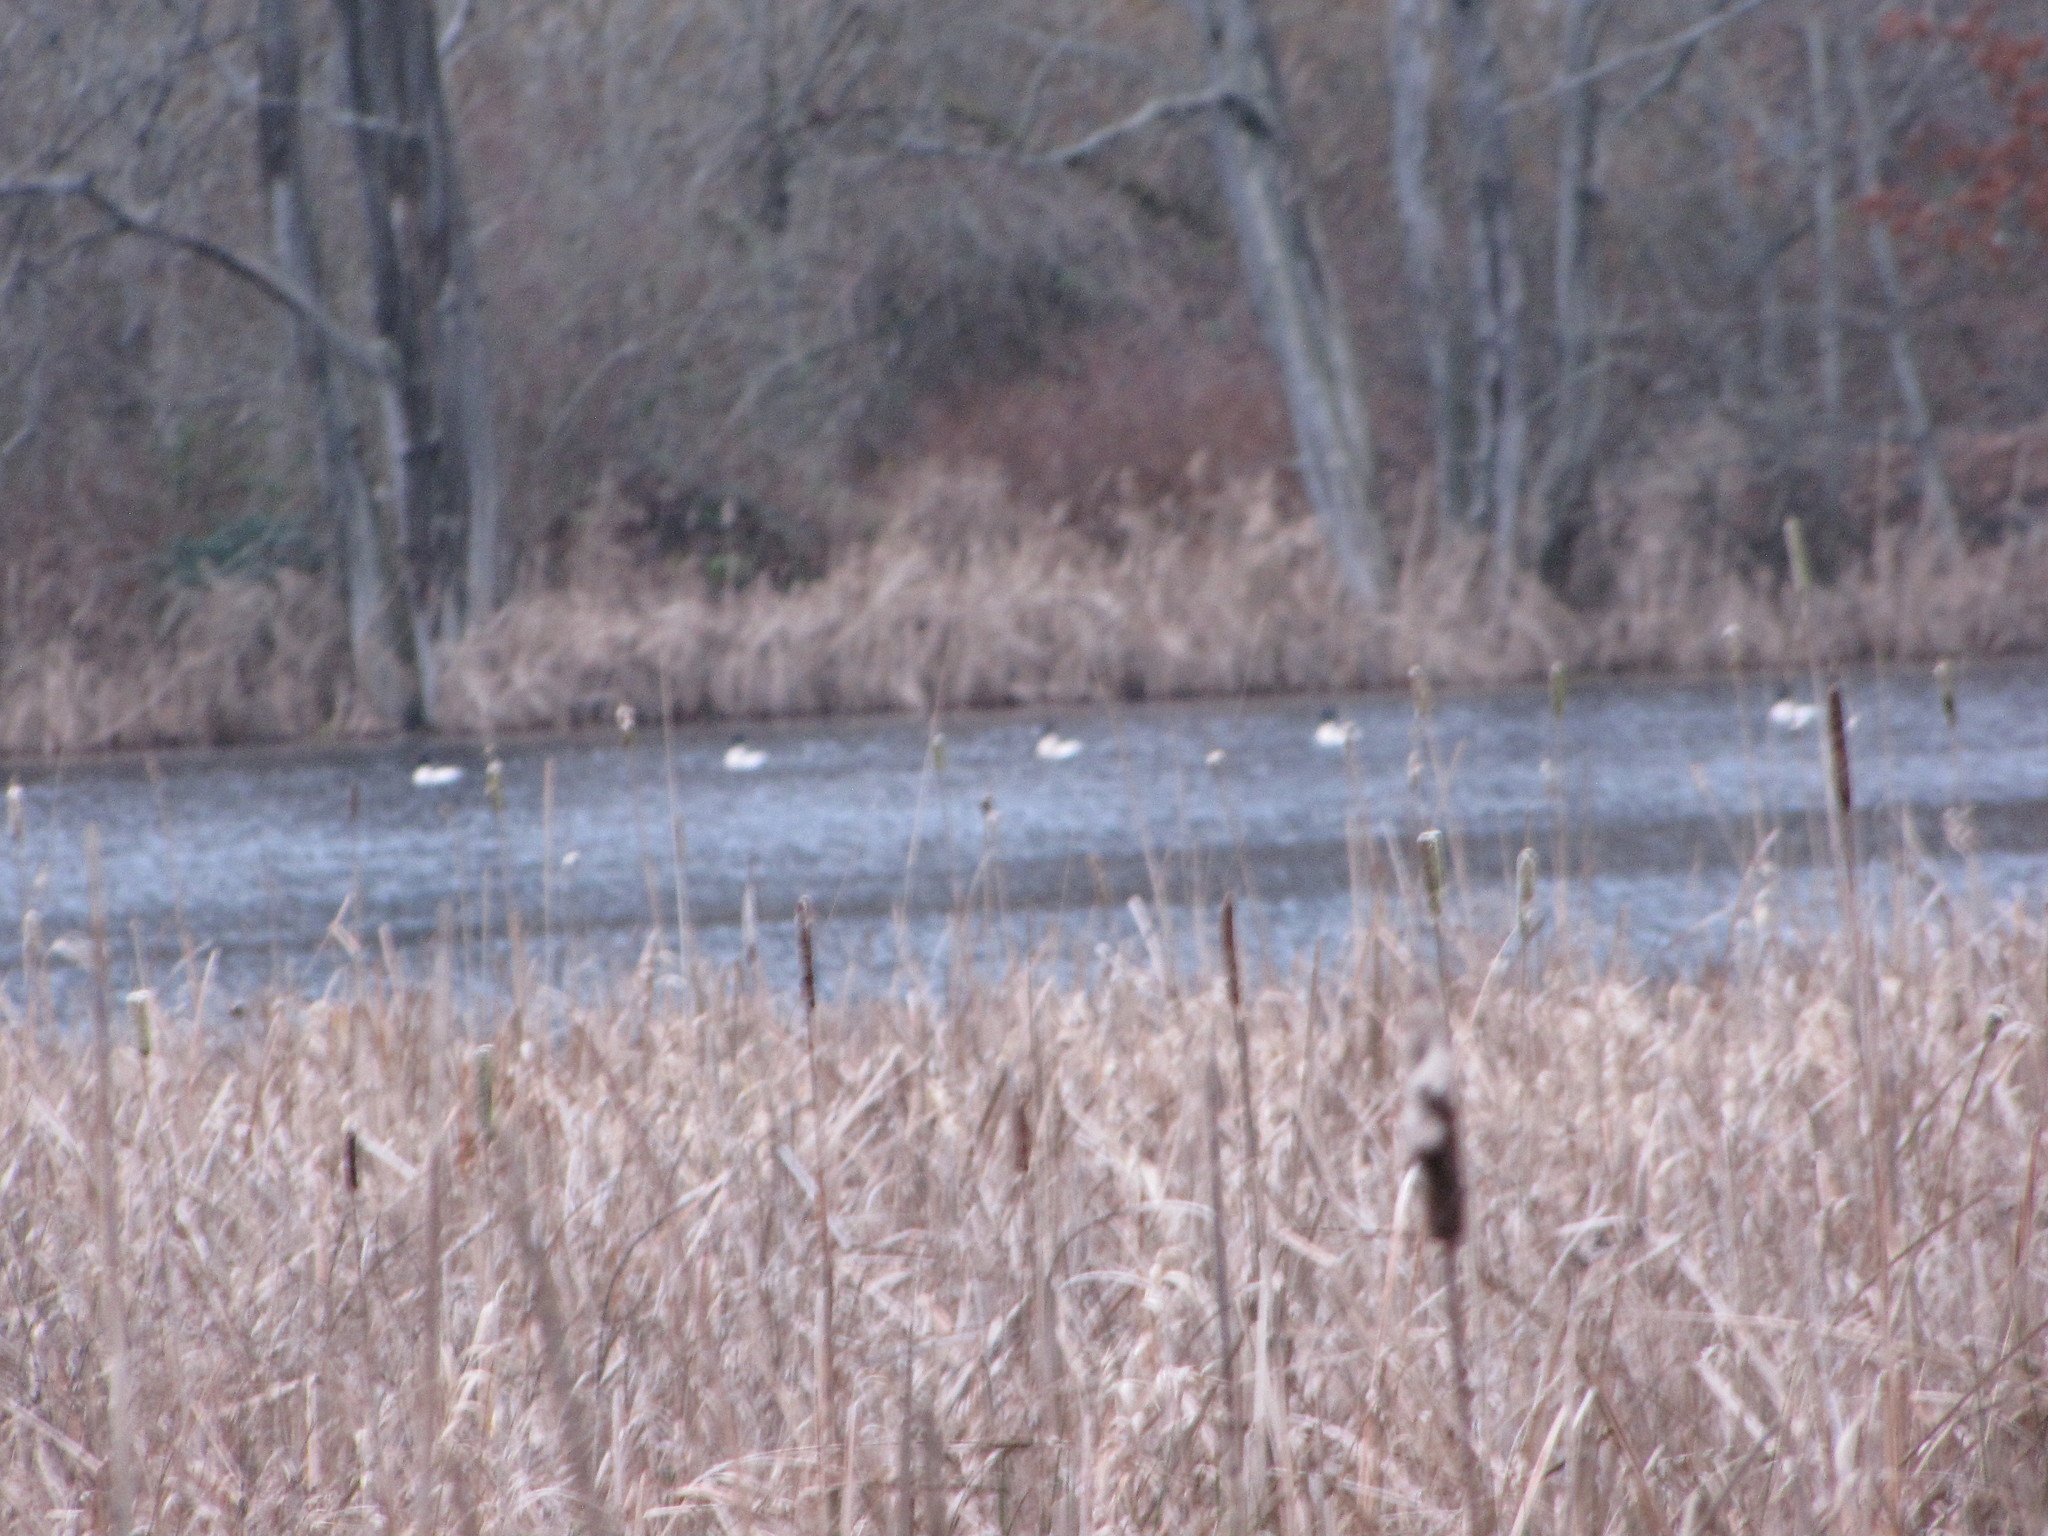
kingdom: Animalia
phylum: Chordata
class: Aves
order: Anseriformes
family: Anatidae
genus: Mergus
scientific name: Mergus merganser
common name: Common merganser
